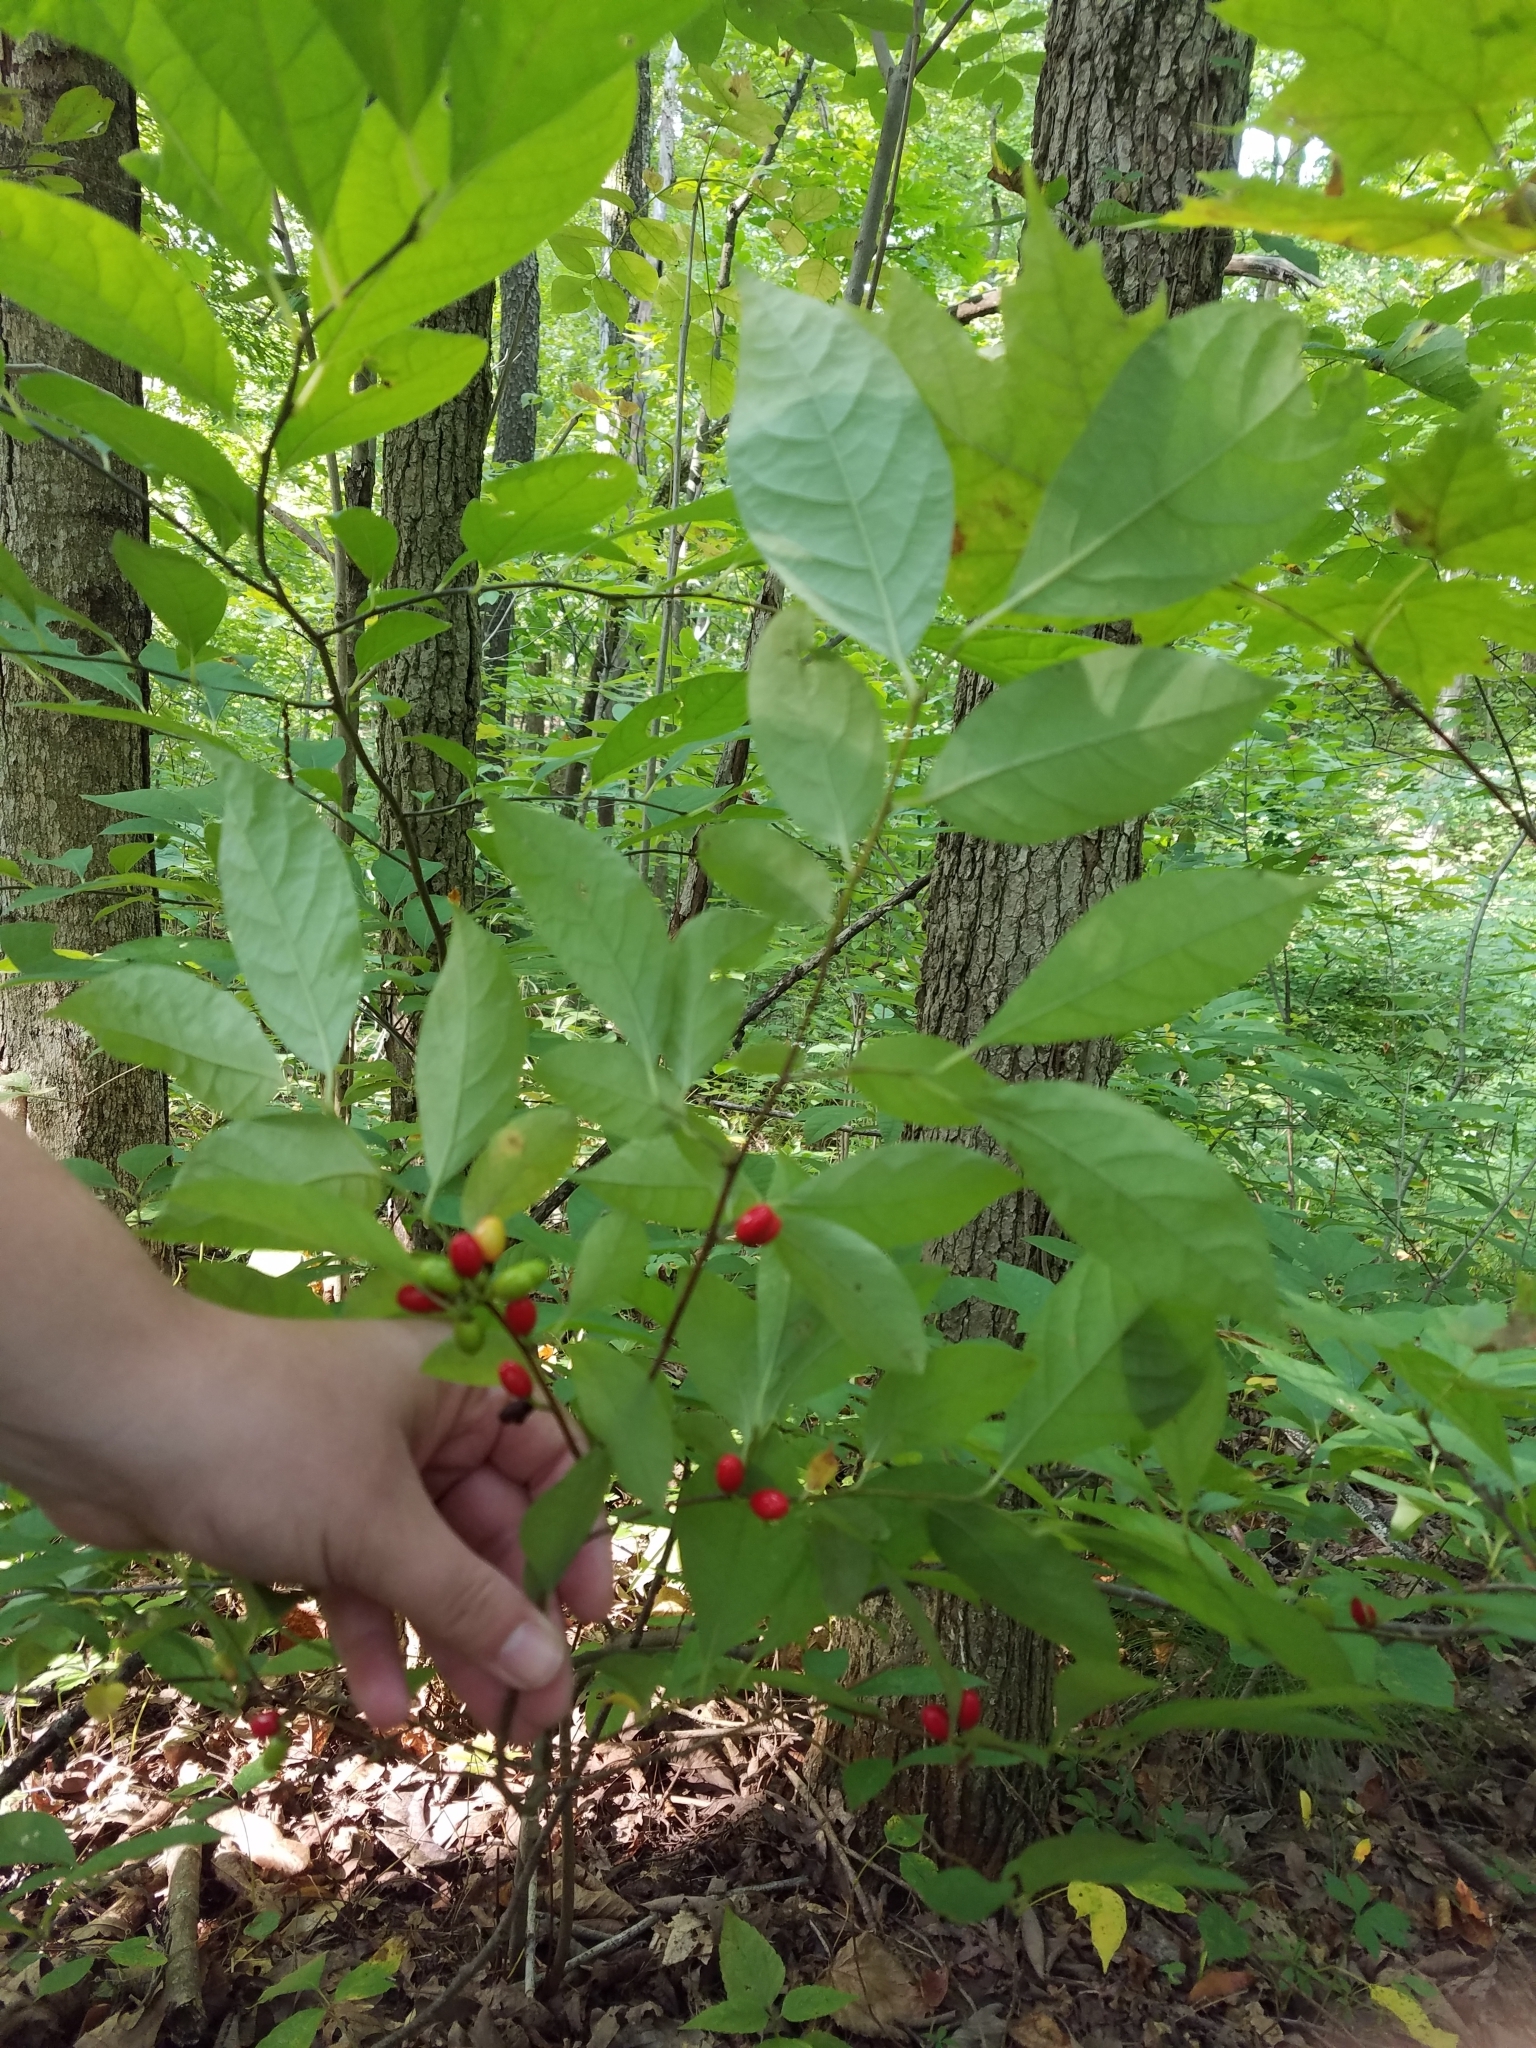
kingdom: Plantae
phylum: Tracheophyta
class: Magnoliopsida
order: Laurales
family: Lauraceae
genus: Lindera
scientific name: Lindera benzoin
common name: Spicebush
